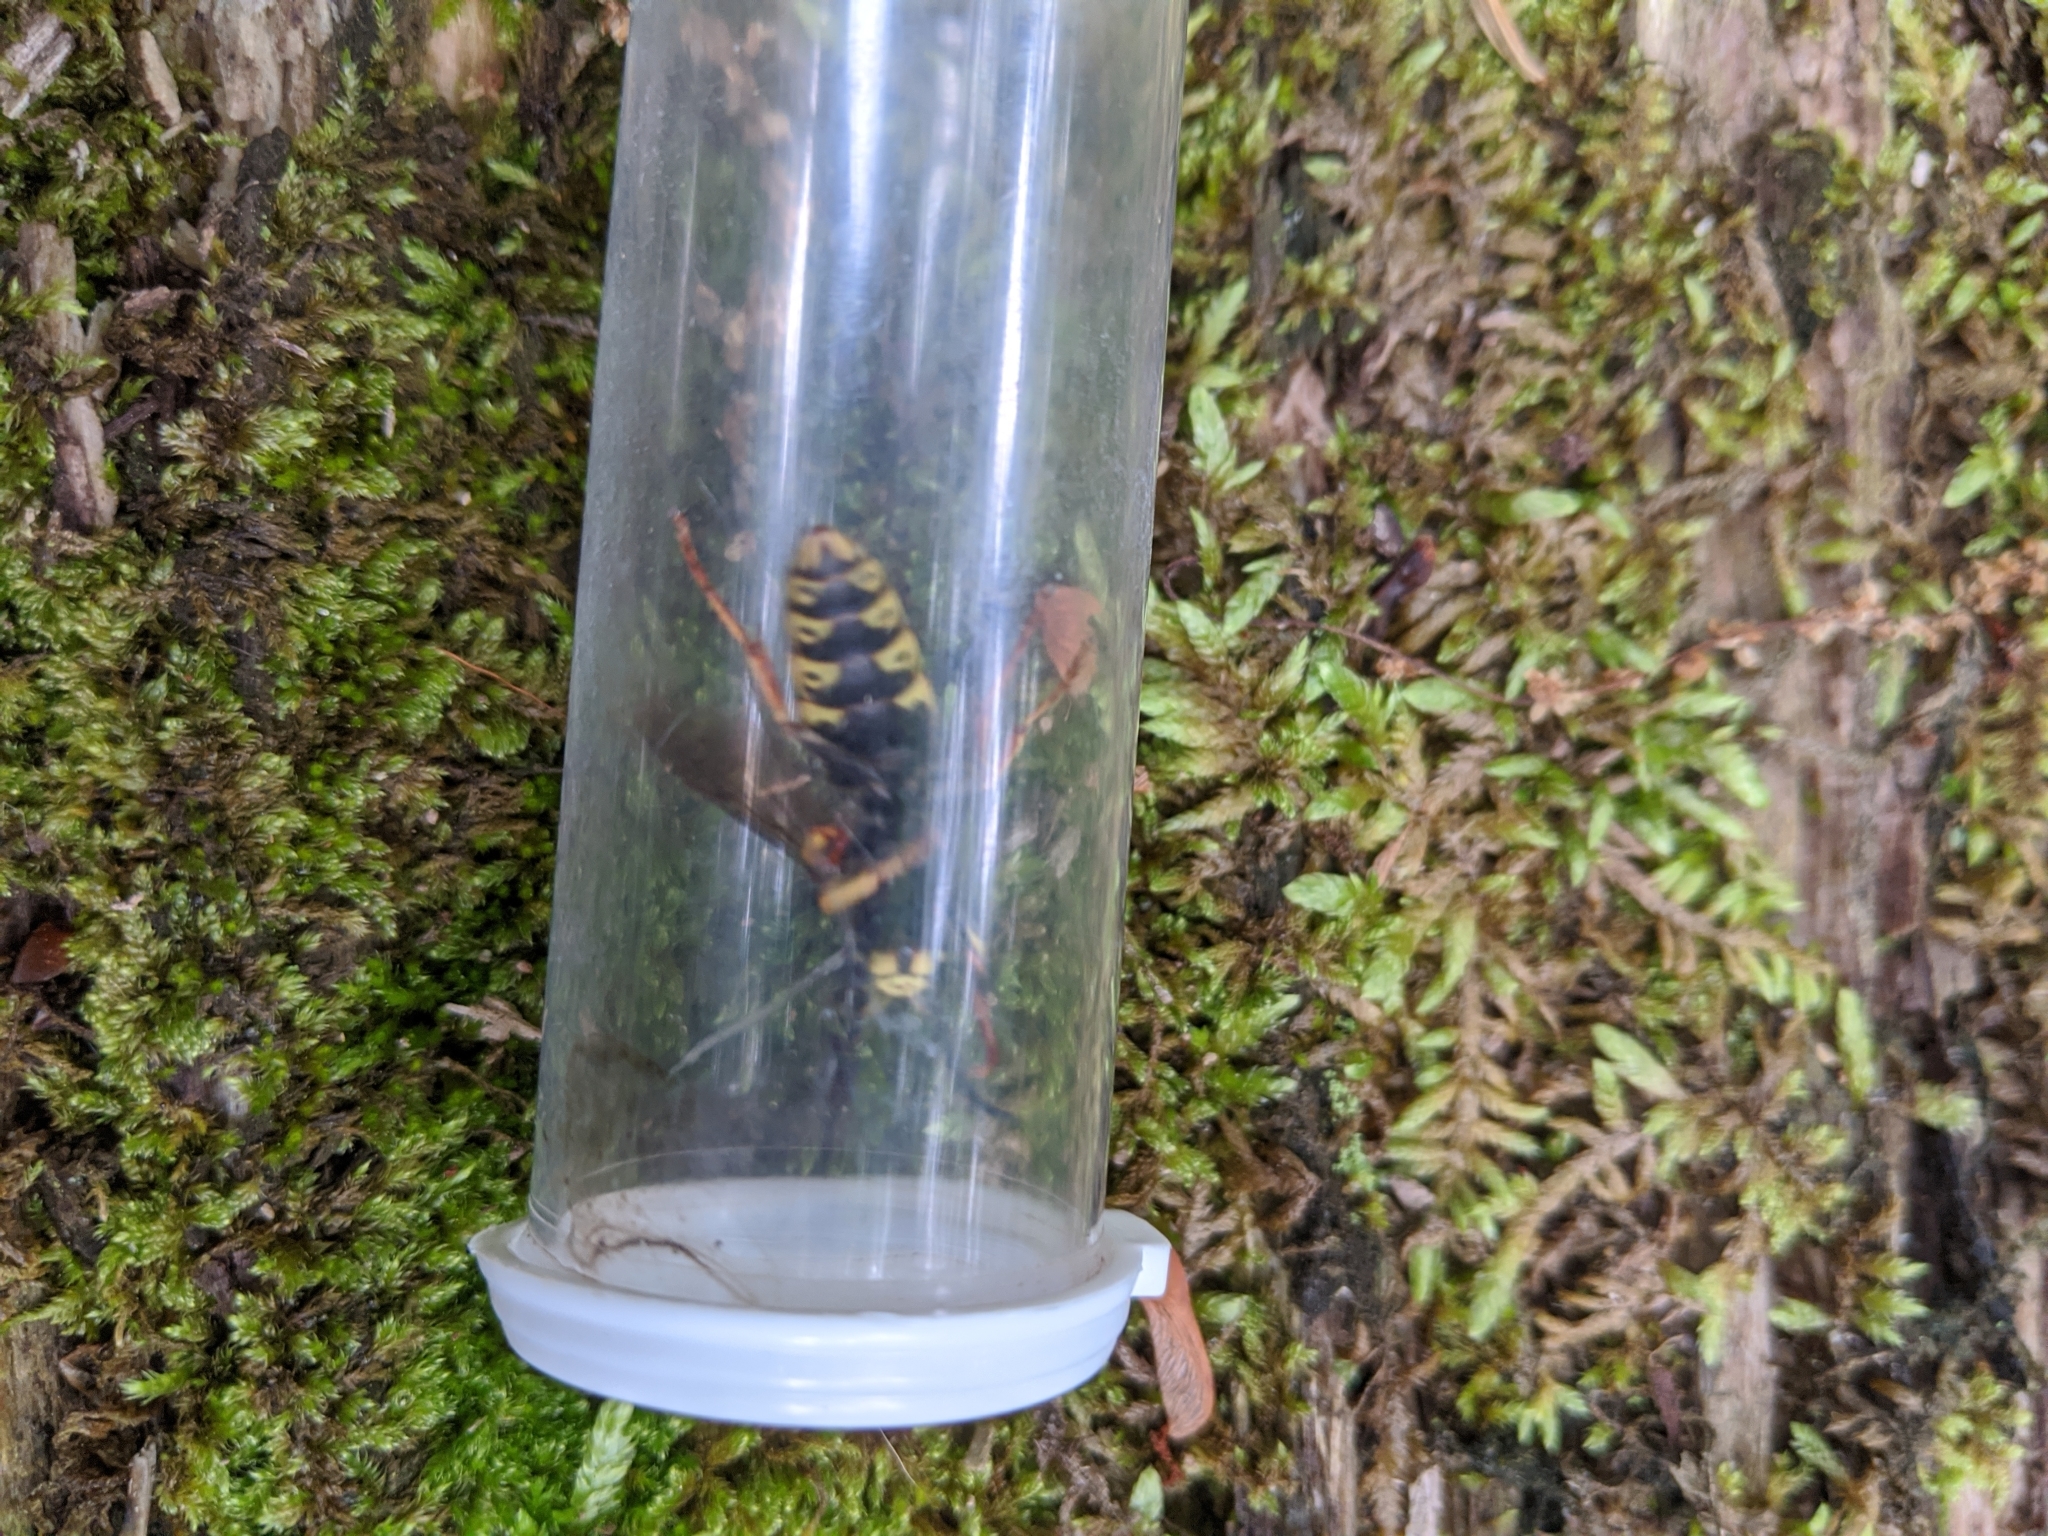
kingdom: Animalia
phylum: Arthropoda
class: Insecta
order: Hymenoptera
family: Vespidae
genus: Vespula
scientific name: Vespula vidua
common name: Widow yellowjacket
